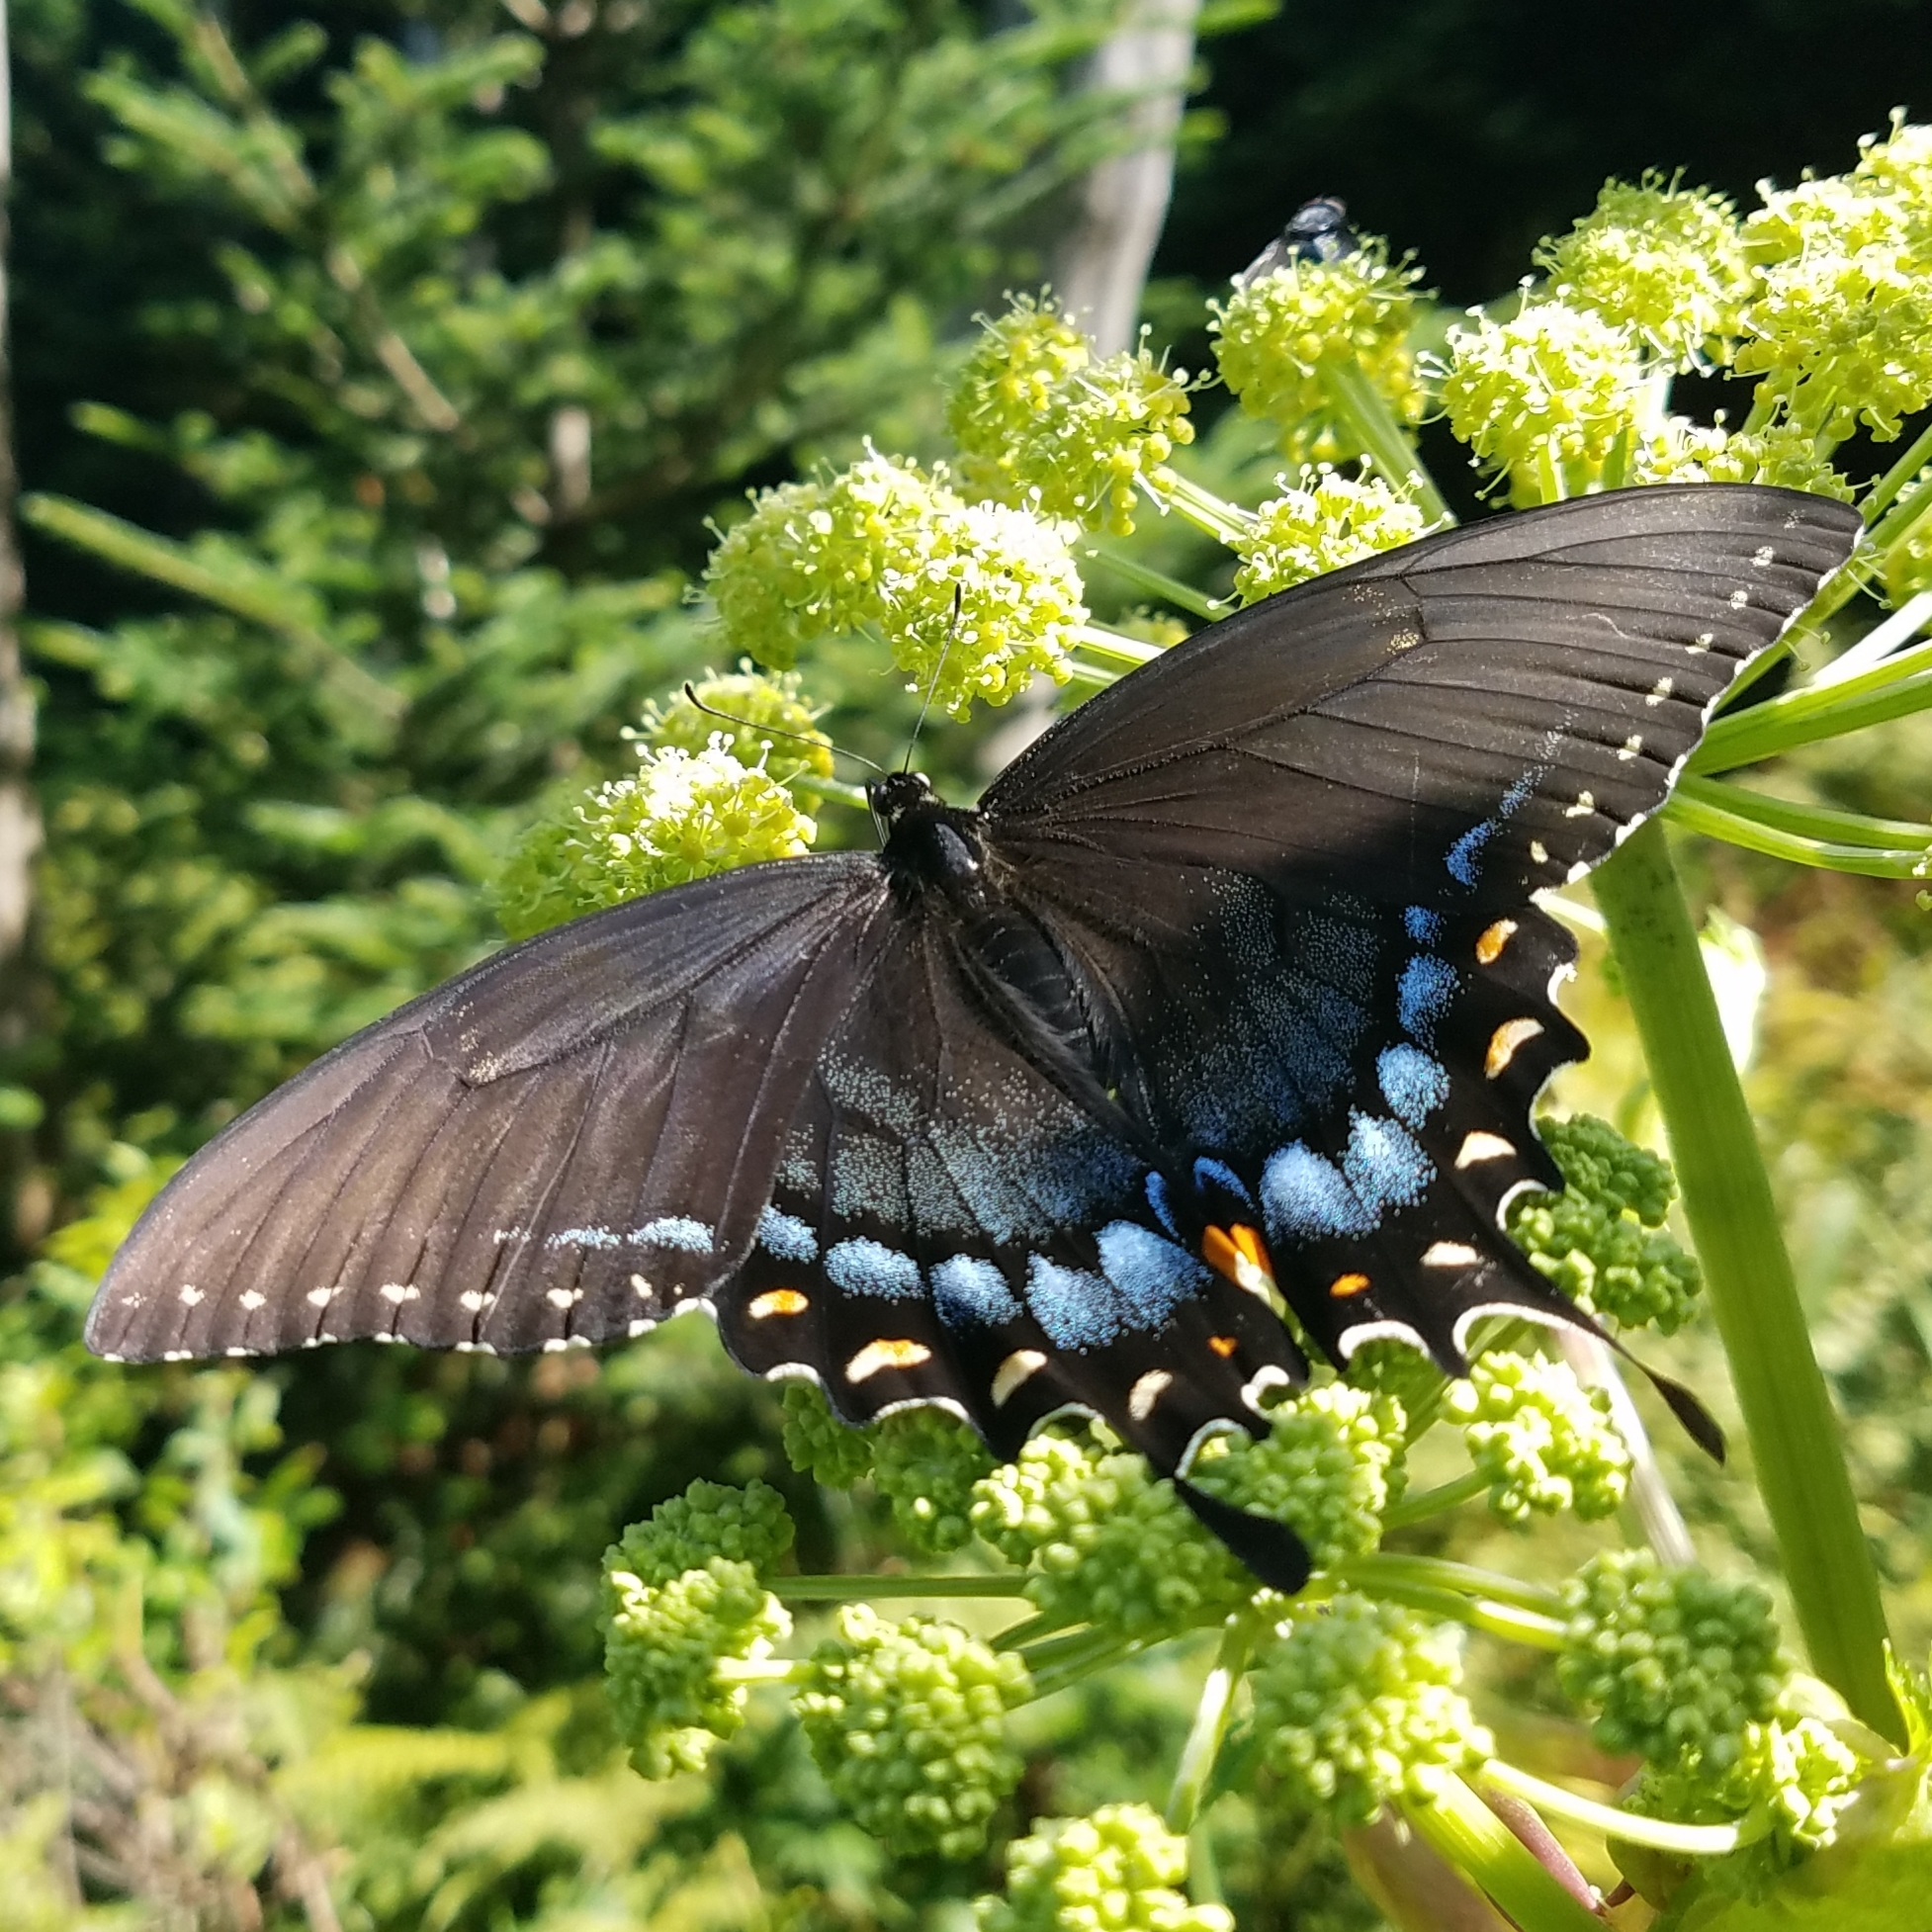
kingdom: Animalia
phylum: Arthropoda
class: Insecta
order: Lepidoptera
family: Papilionidae
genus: Papilio
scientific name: Papilio glaucus
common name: Tiger swallowtail
